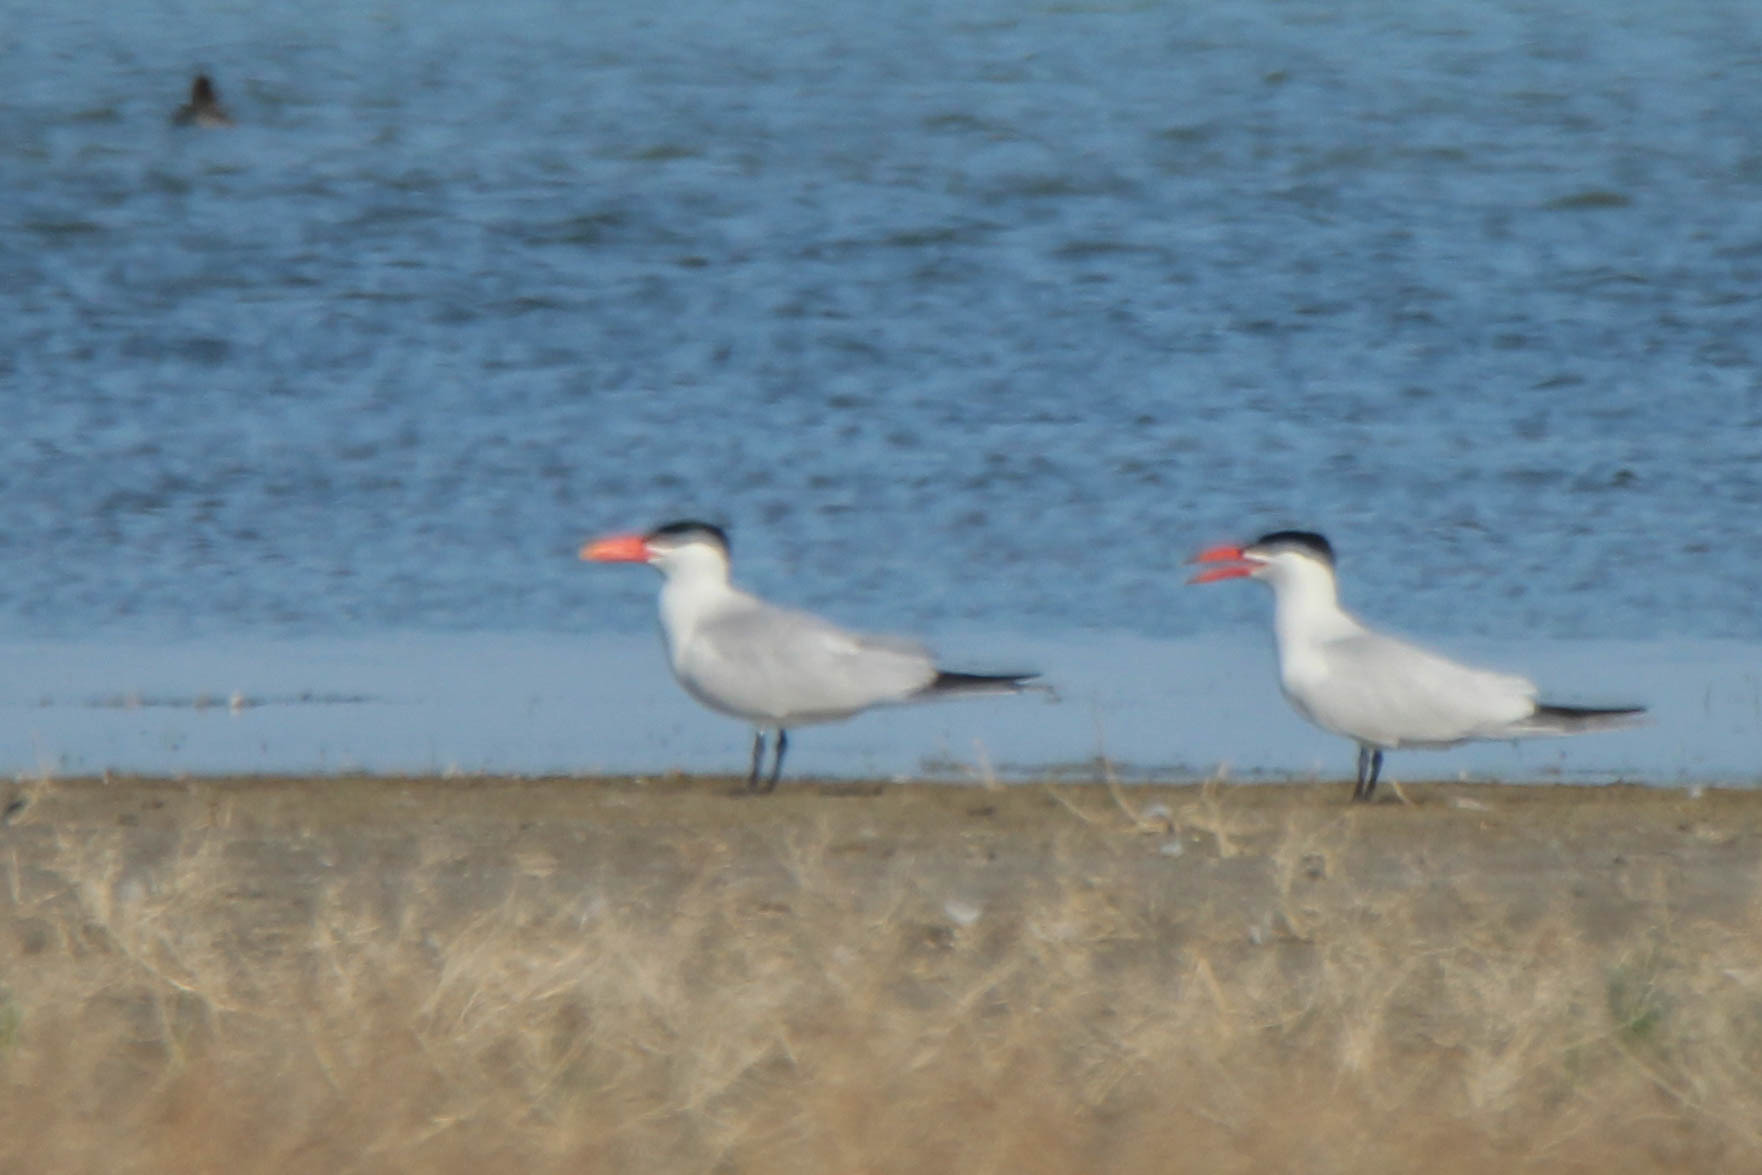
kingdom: Animalia
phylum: Chordata
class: Aves
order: Charadriiformes
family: Laridae
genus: Hydroprogne
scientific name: Hydroprogne caspia
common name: Caspian tern
